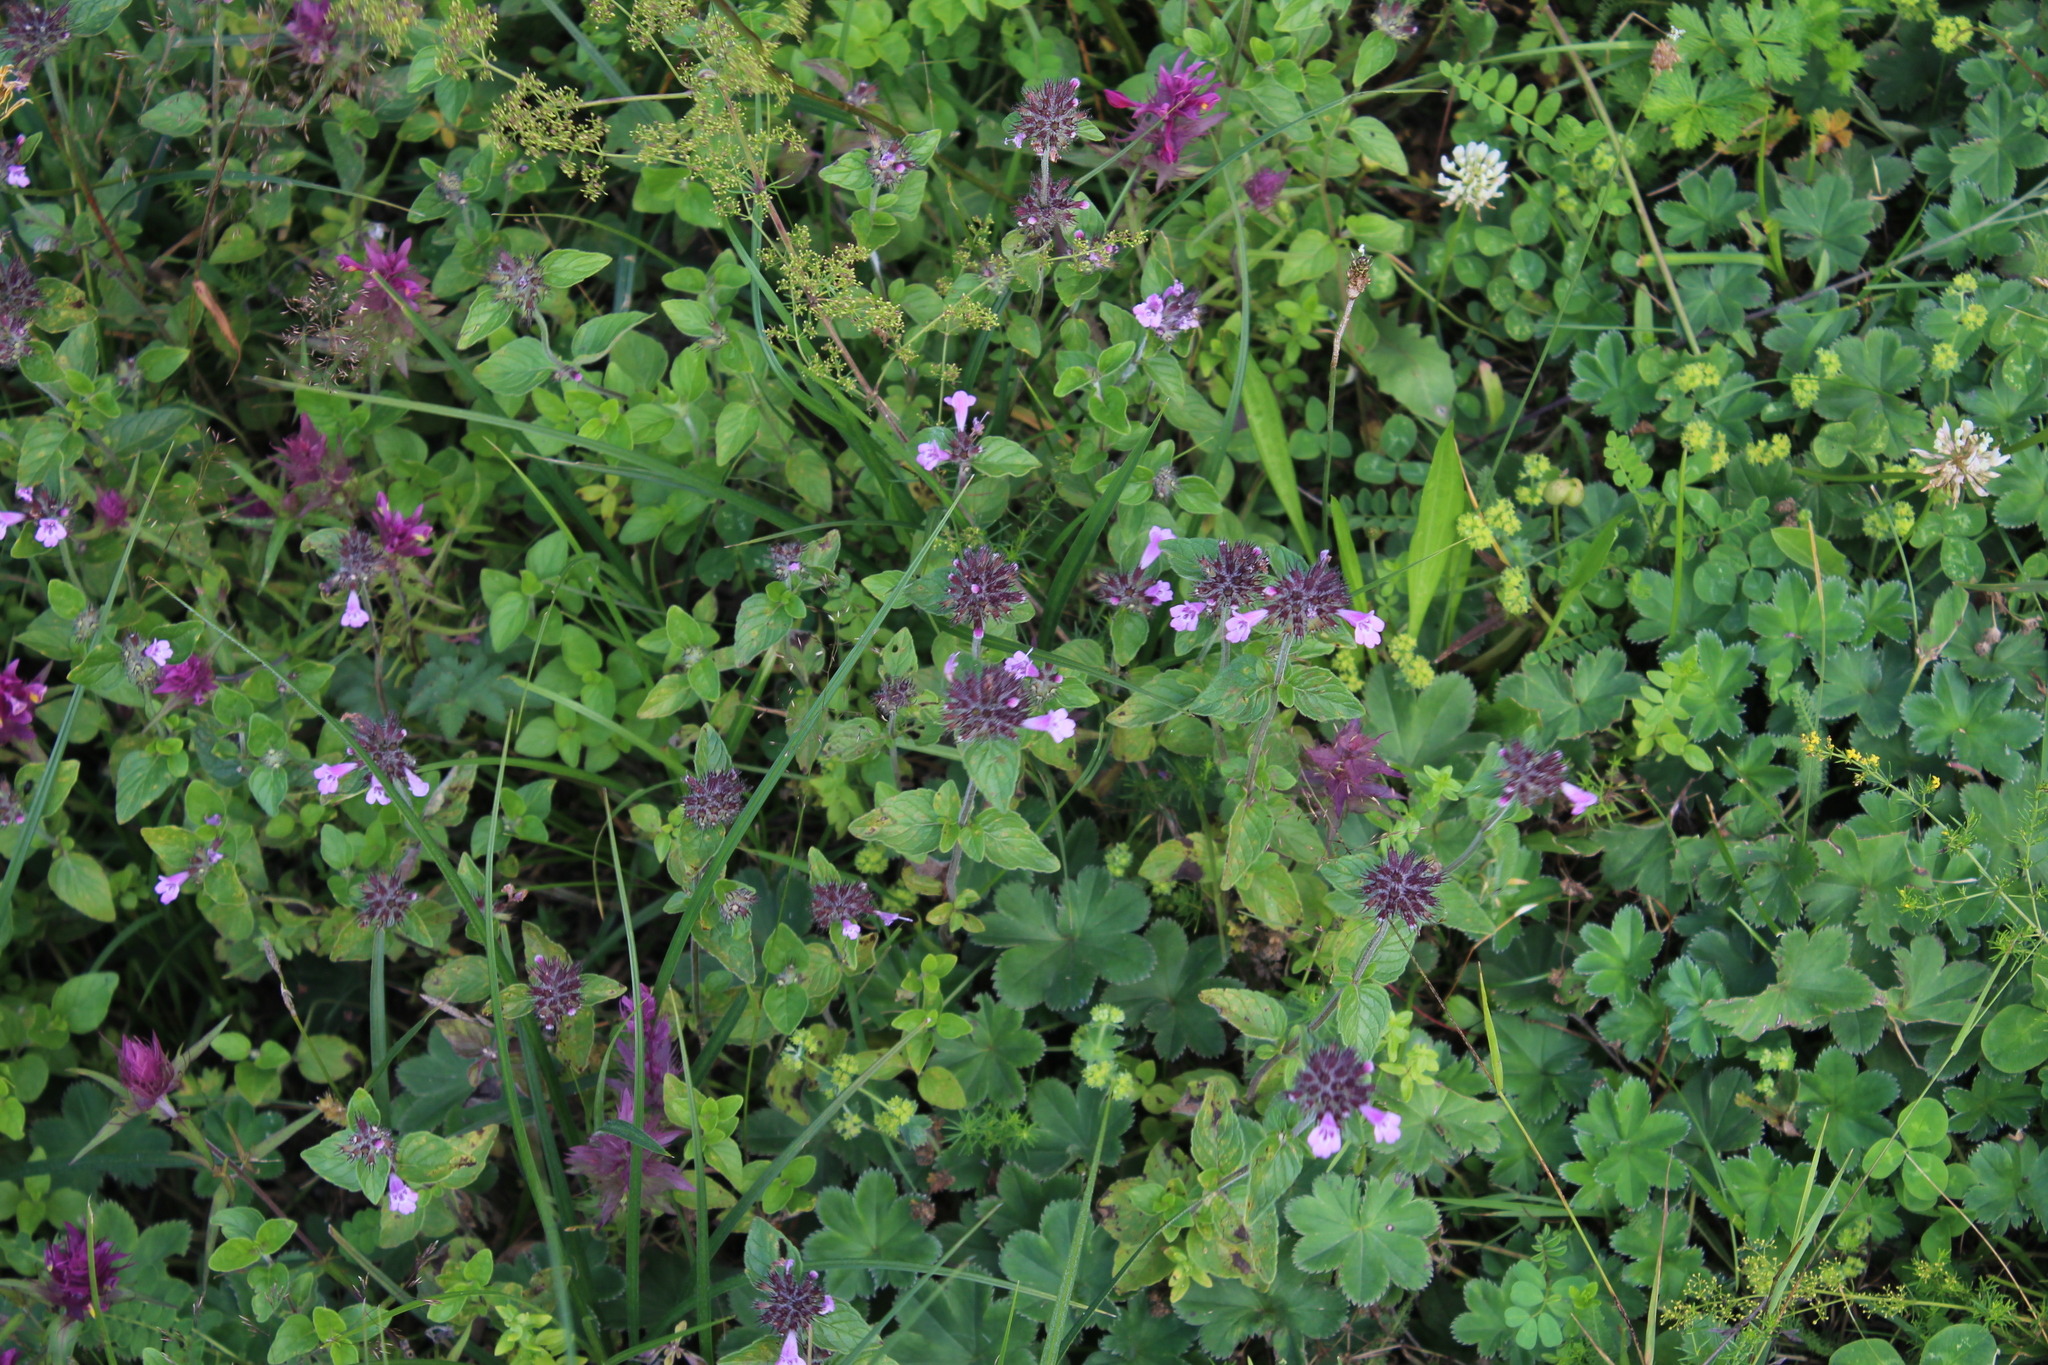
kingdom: Plantae
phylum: Tracheophyta
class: Magnoliopsida
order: Lamiales
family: Lamiaceae
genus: Clinopodium
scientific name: Clinopodium vulgare
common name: Wild basil
